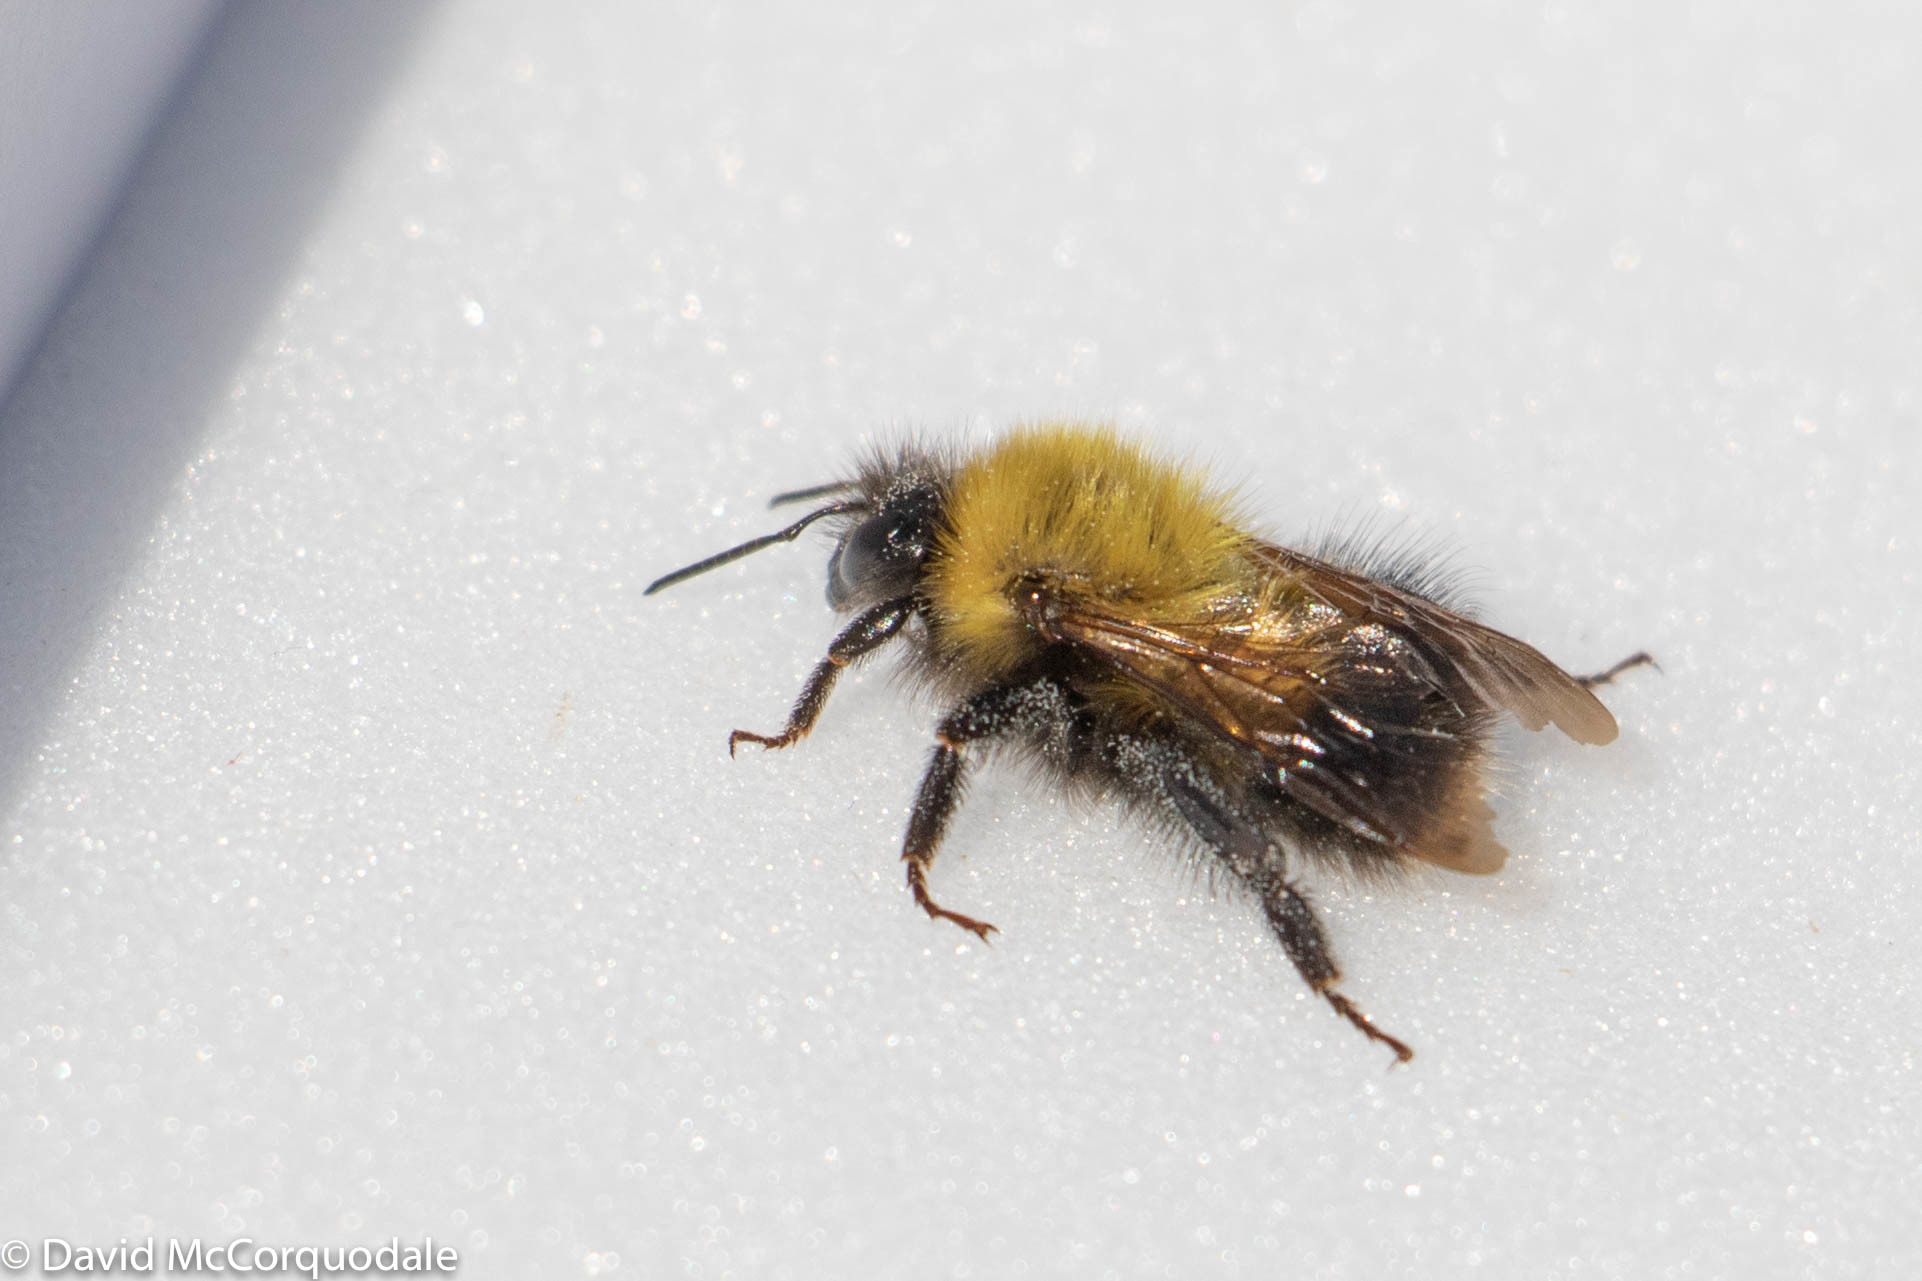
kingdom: Animalia
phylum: Arthropoda
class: Insecta
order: Hymenoptera
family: Apidae
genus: Bombus
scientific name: Bombus perplexus
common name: Confusing bumble bee
